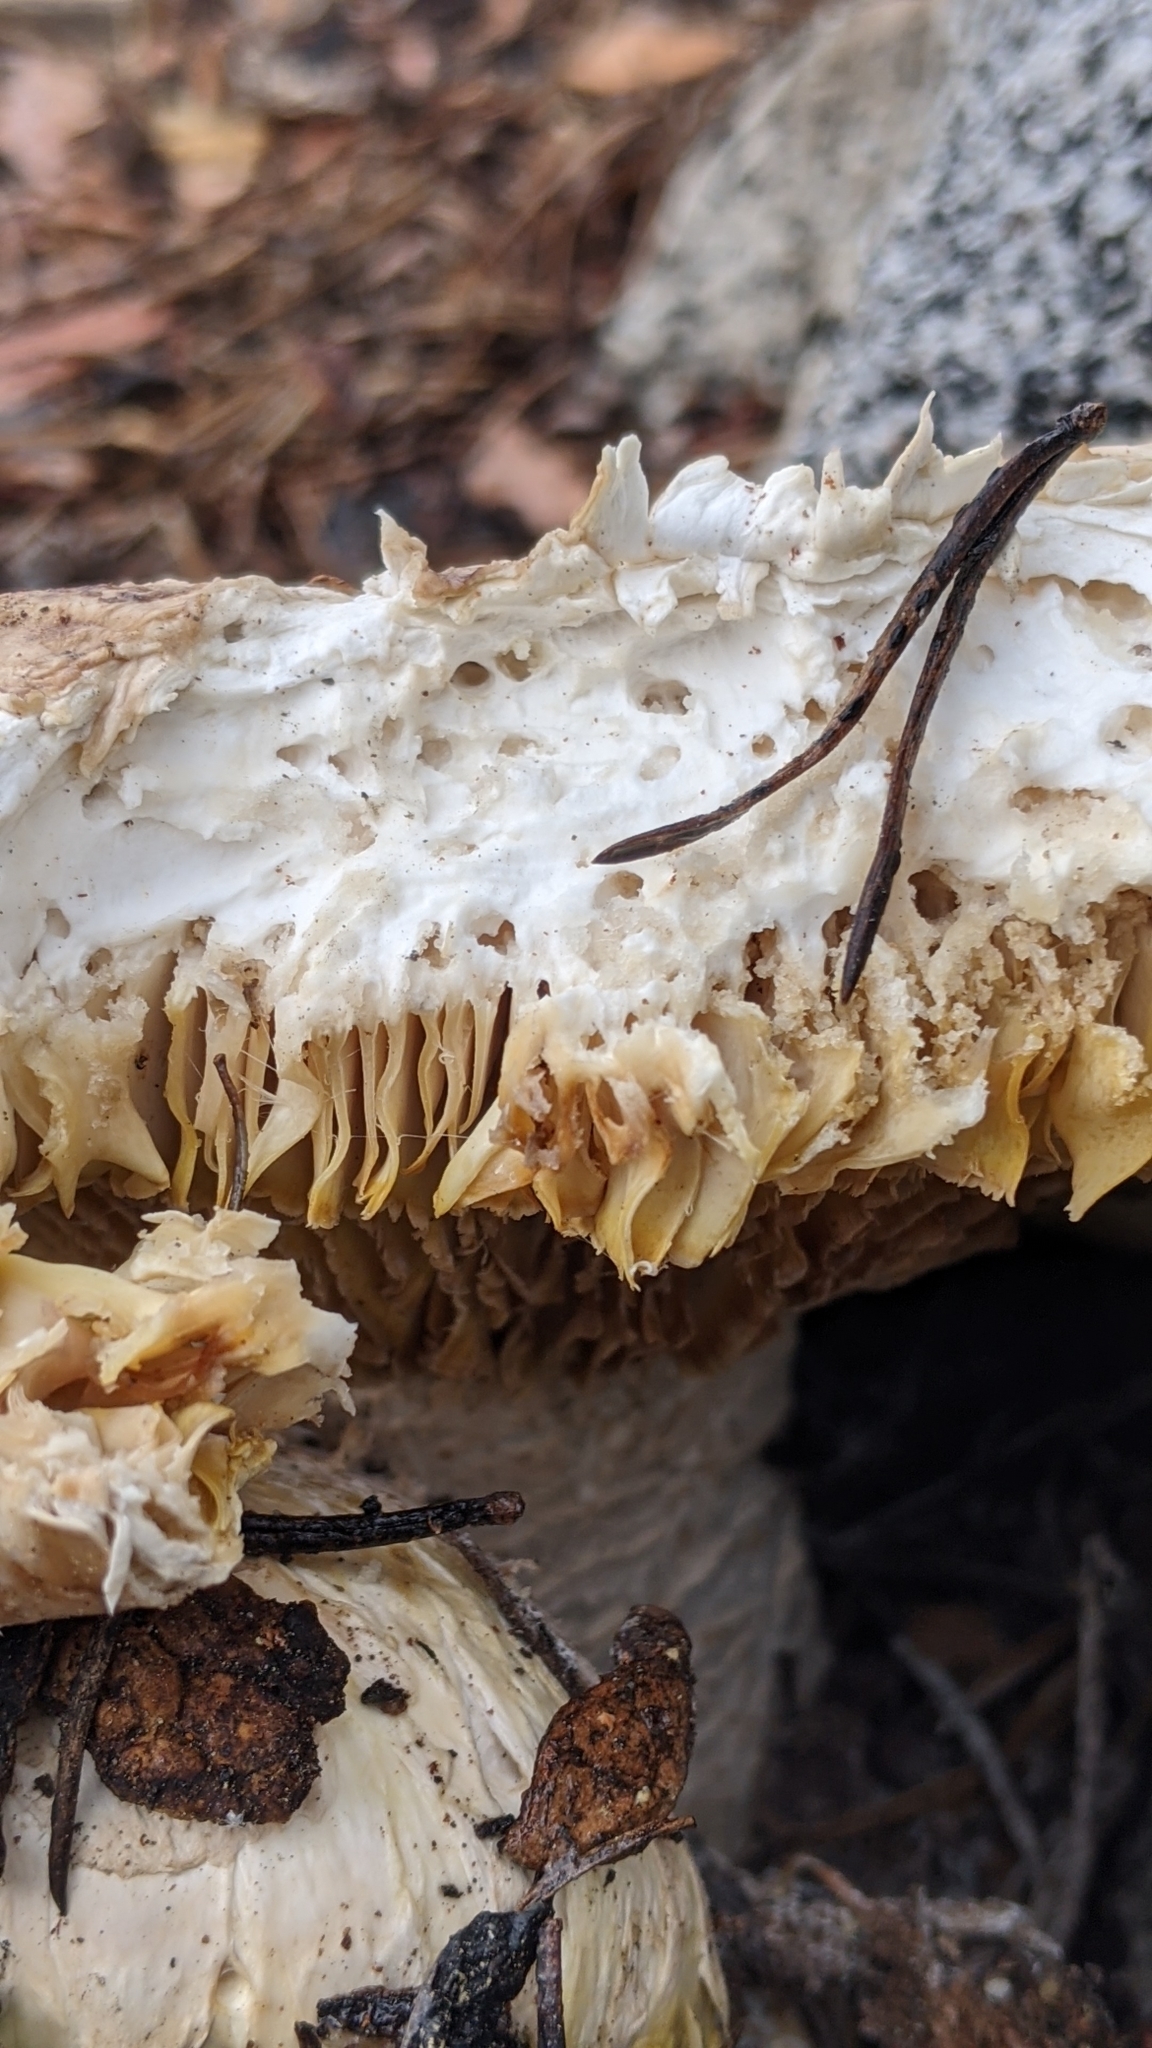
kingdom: Fungi
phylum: Basidiomycota
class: Agaricomycetes
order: Gloeophyllales
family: Gloeophyllaceae
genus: Neolentinus
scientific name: Neolentinus ponderosus
